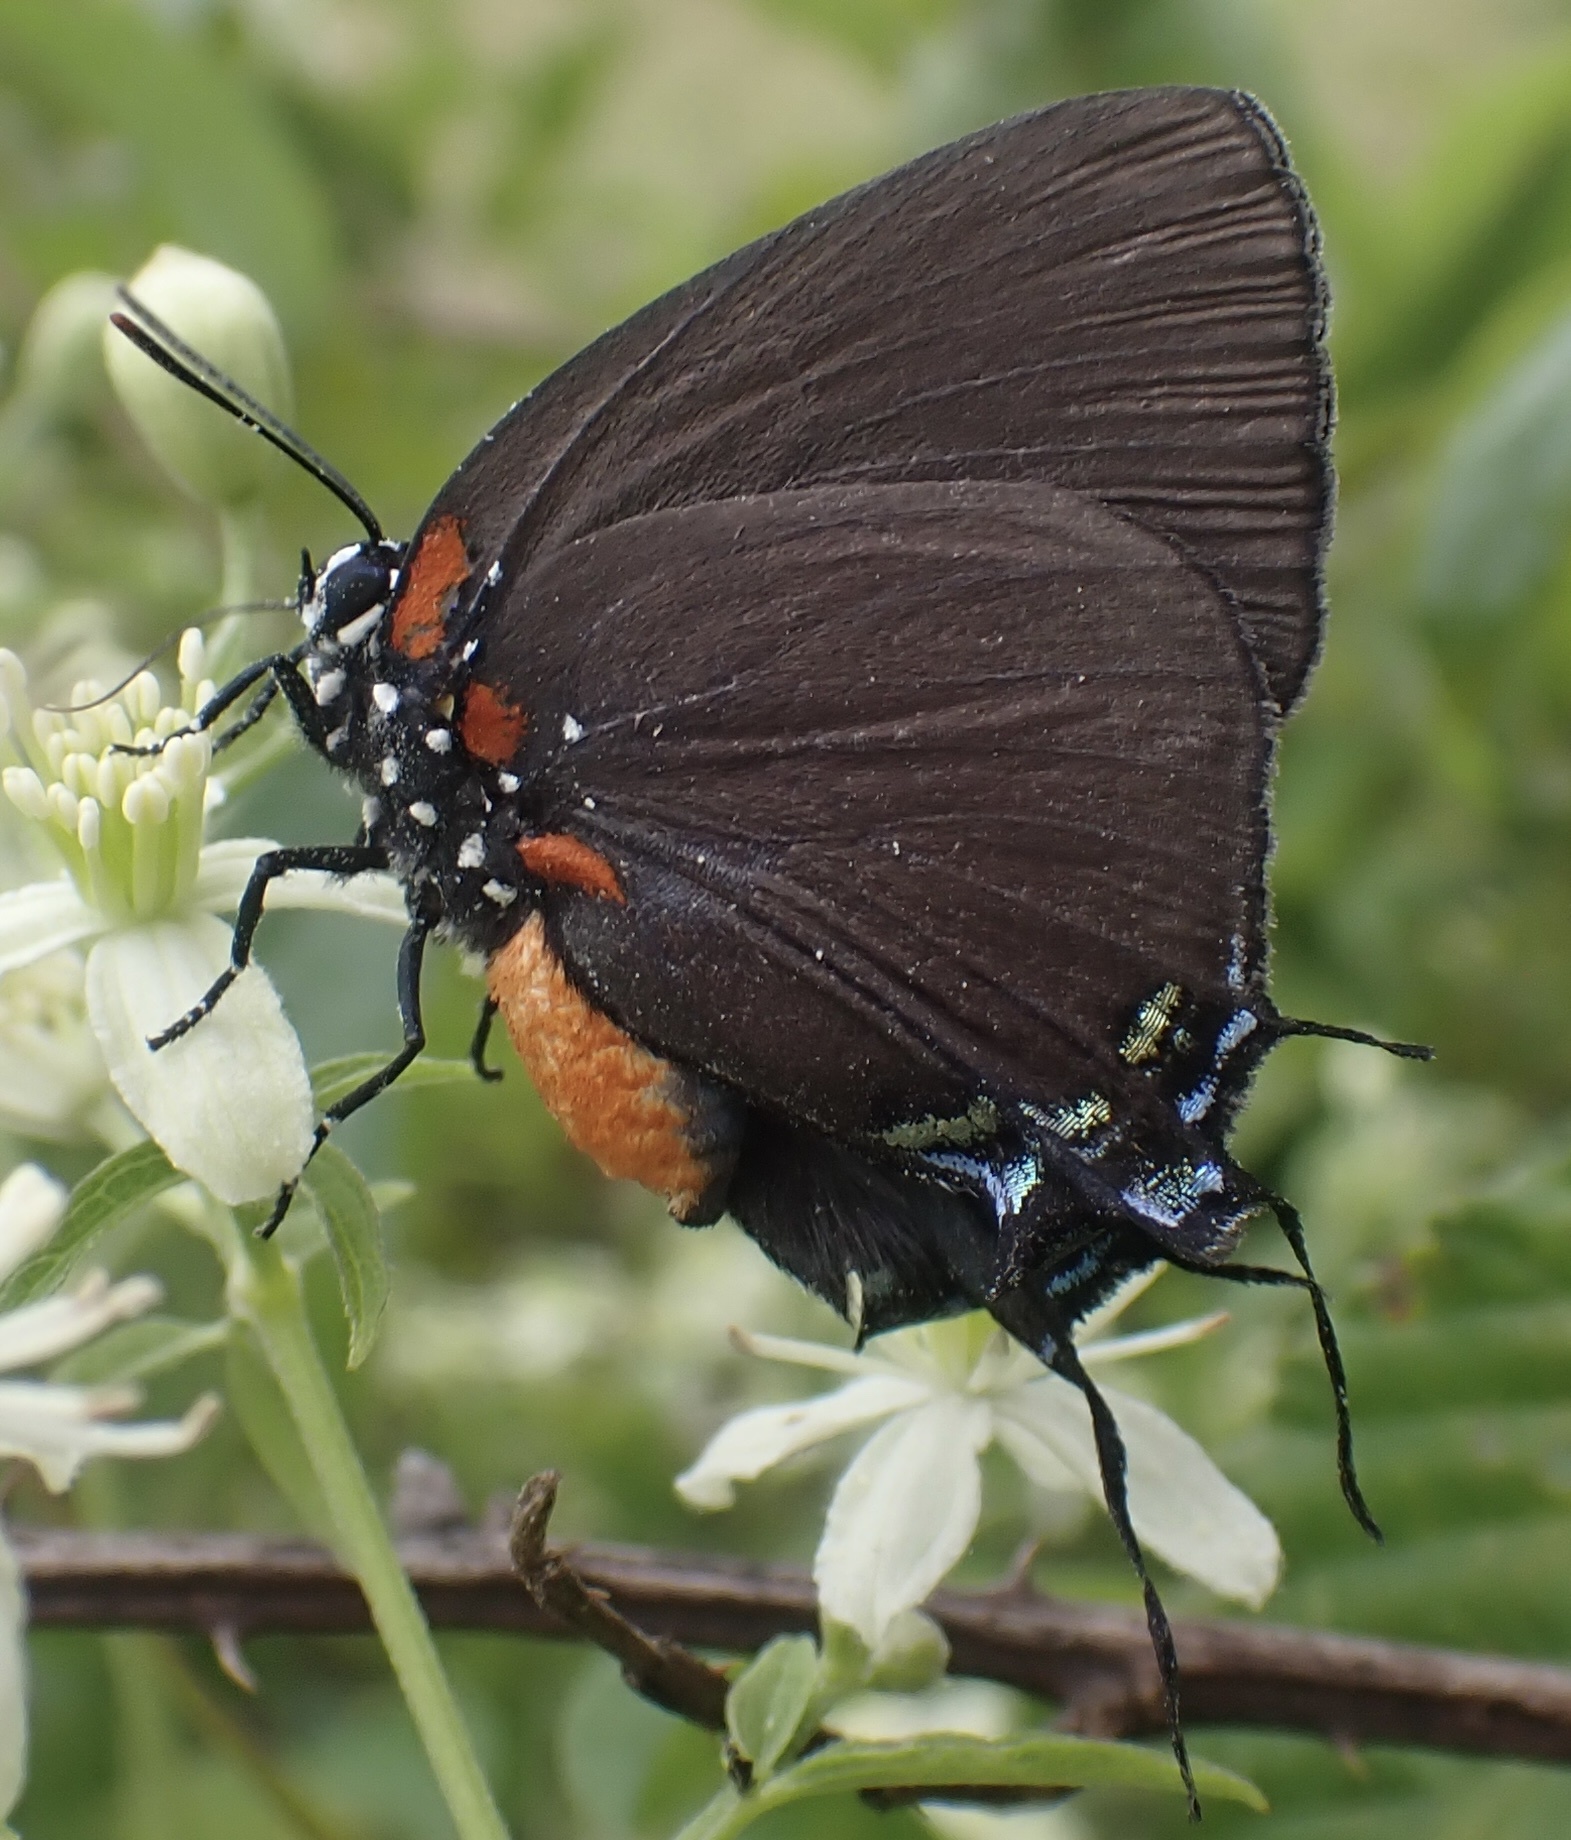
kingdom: Animalia
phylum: Arthropoda
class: Insecta
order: Lepidoptera
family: Lycaenidae
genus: Atlides
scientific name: Atlides halesus
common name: Great purple hairstreak
